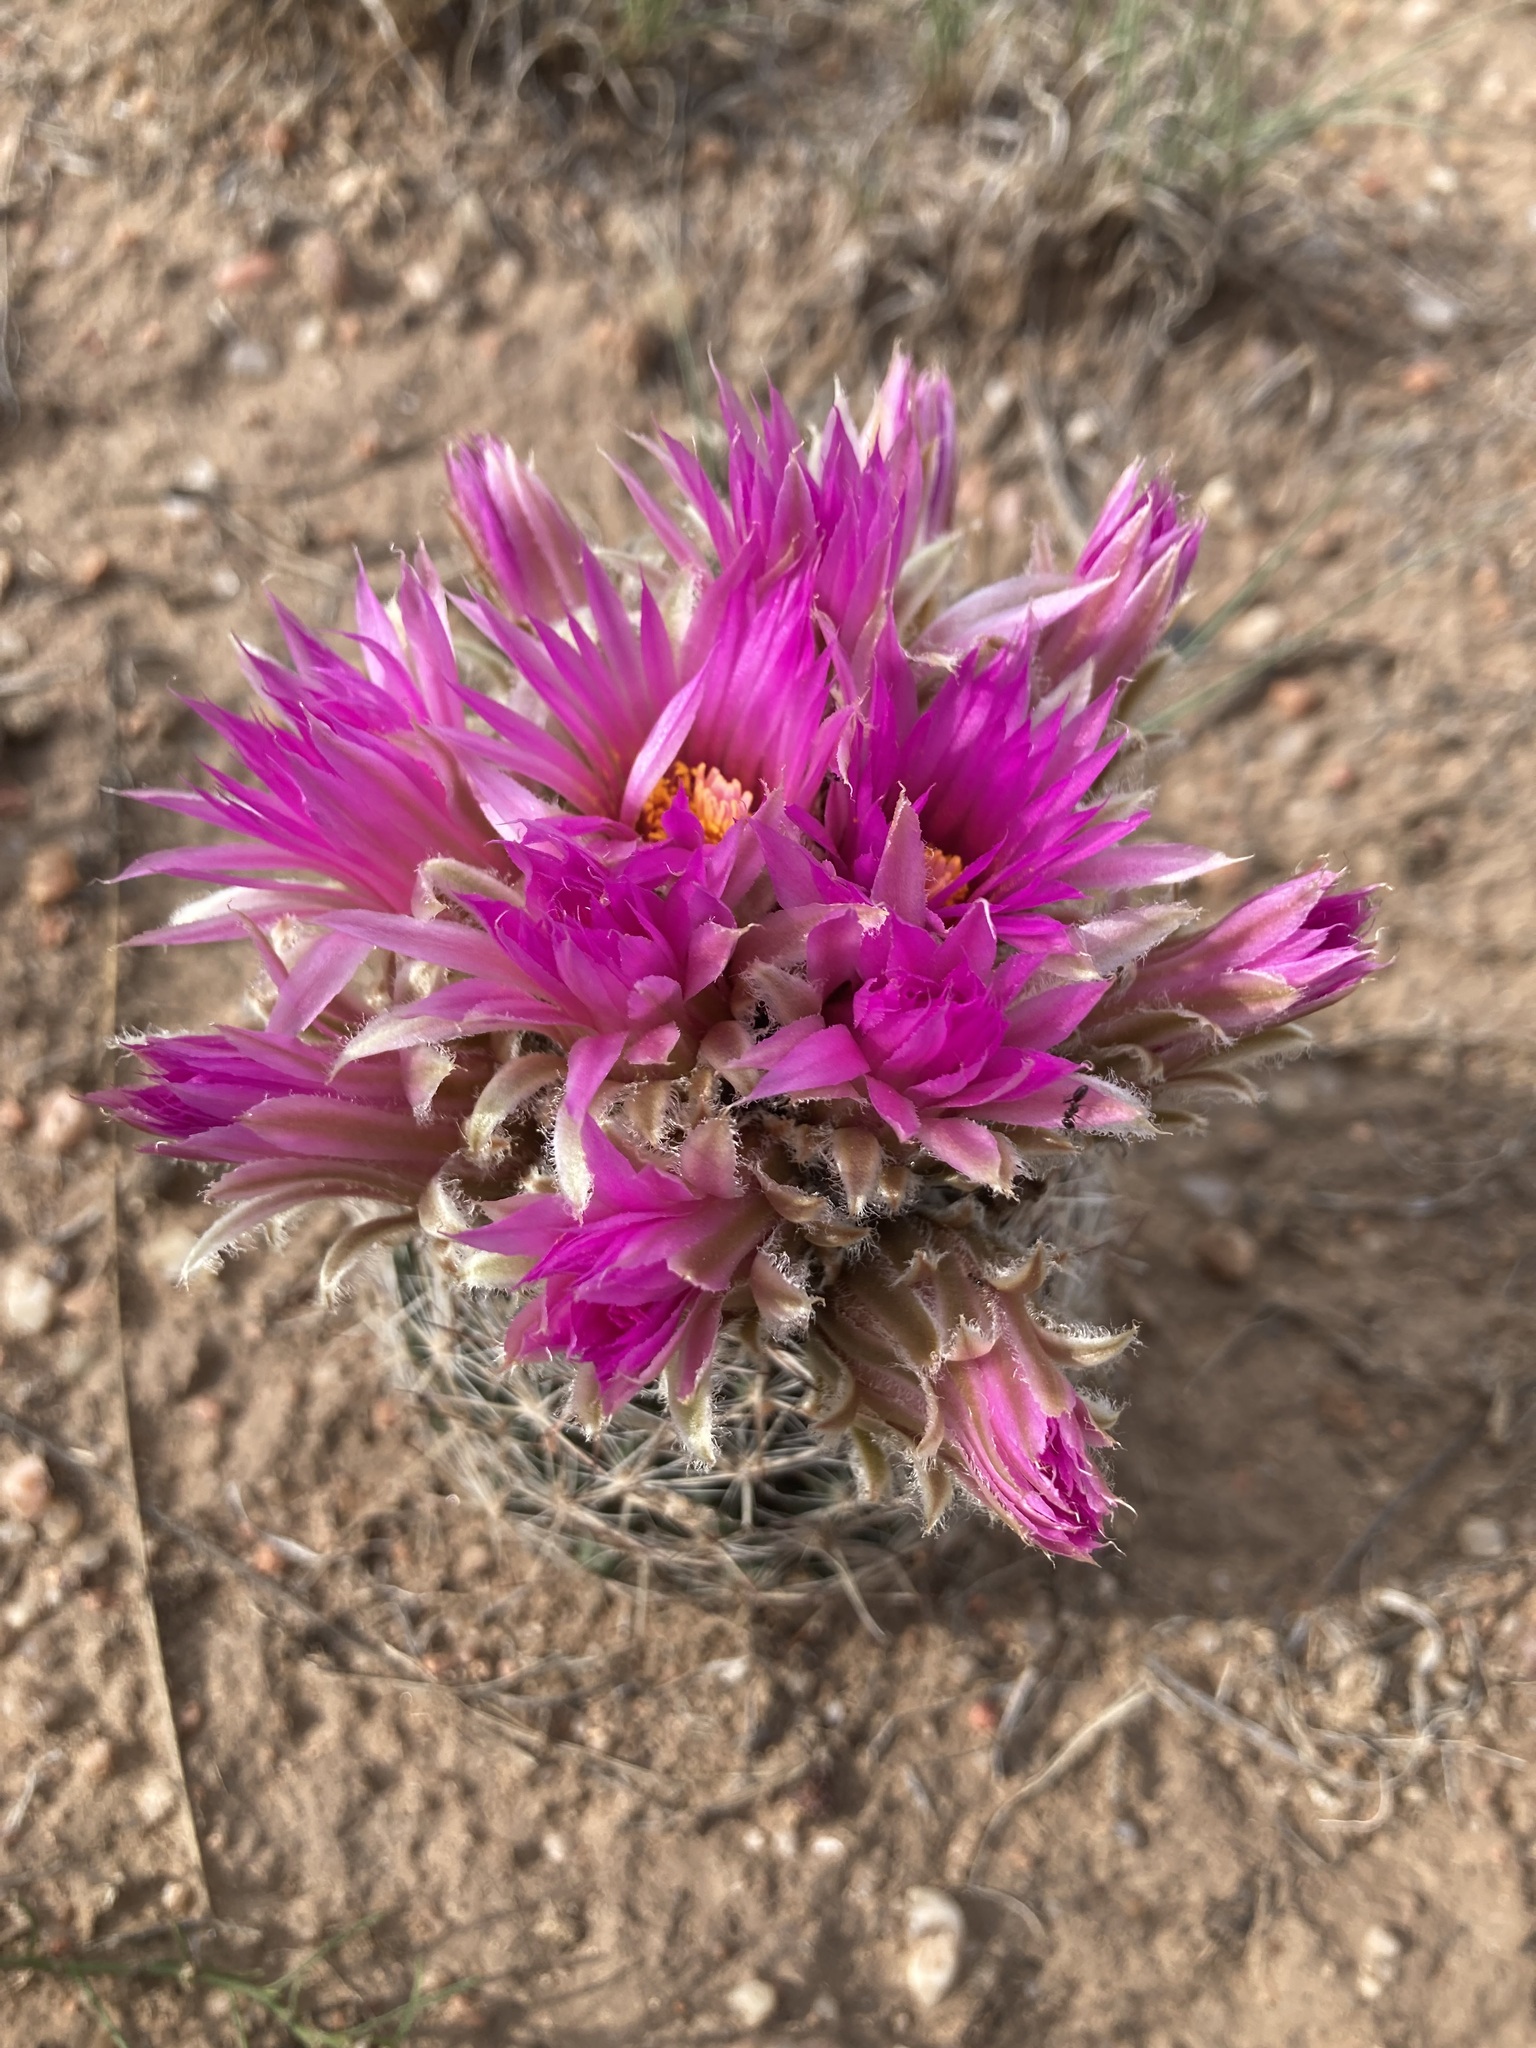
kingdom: Plantae
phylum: Tracheophyta
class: Magnoliopsida
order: Caryophyllales
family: Cactaceae
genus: Pelecyphora
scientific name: Pelecyphora vivipara
